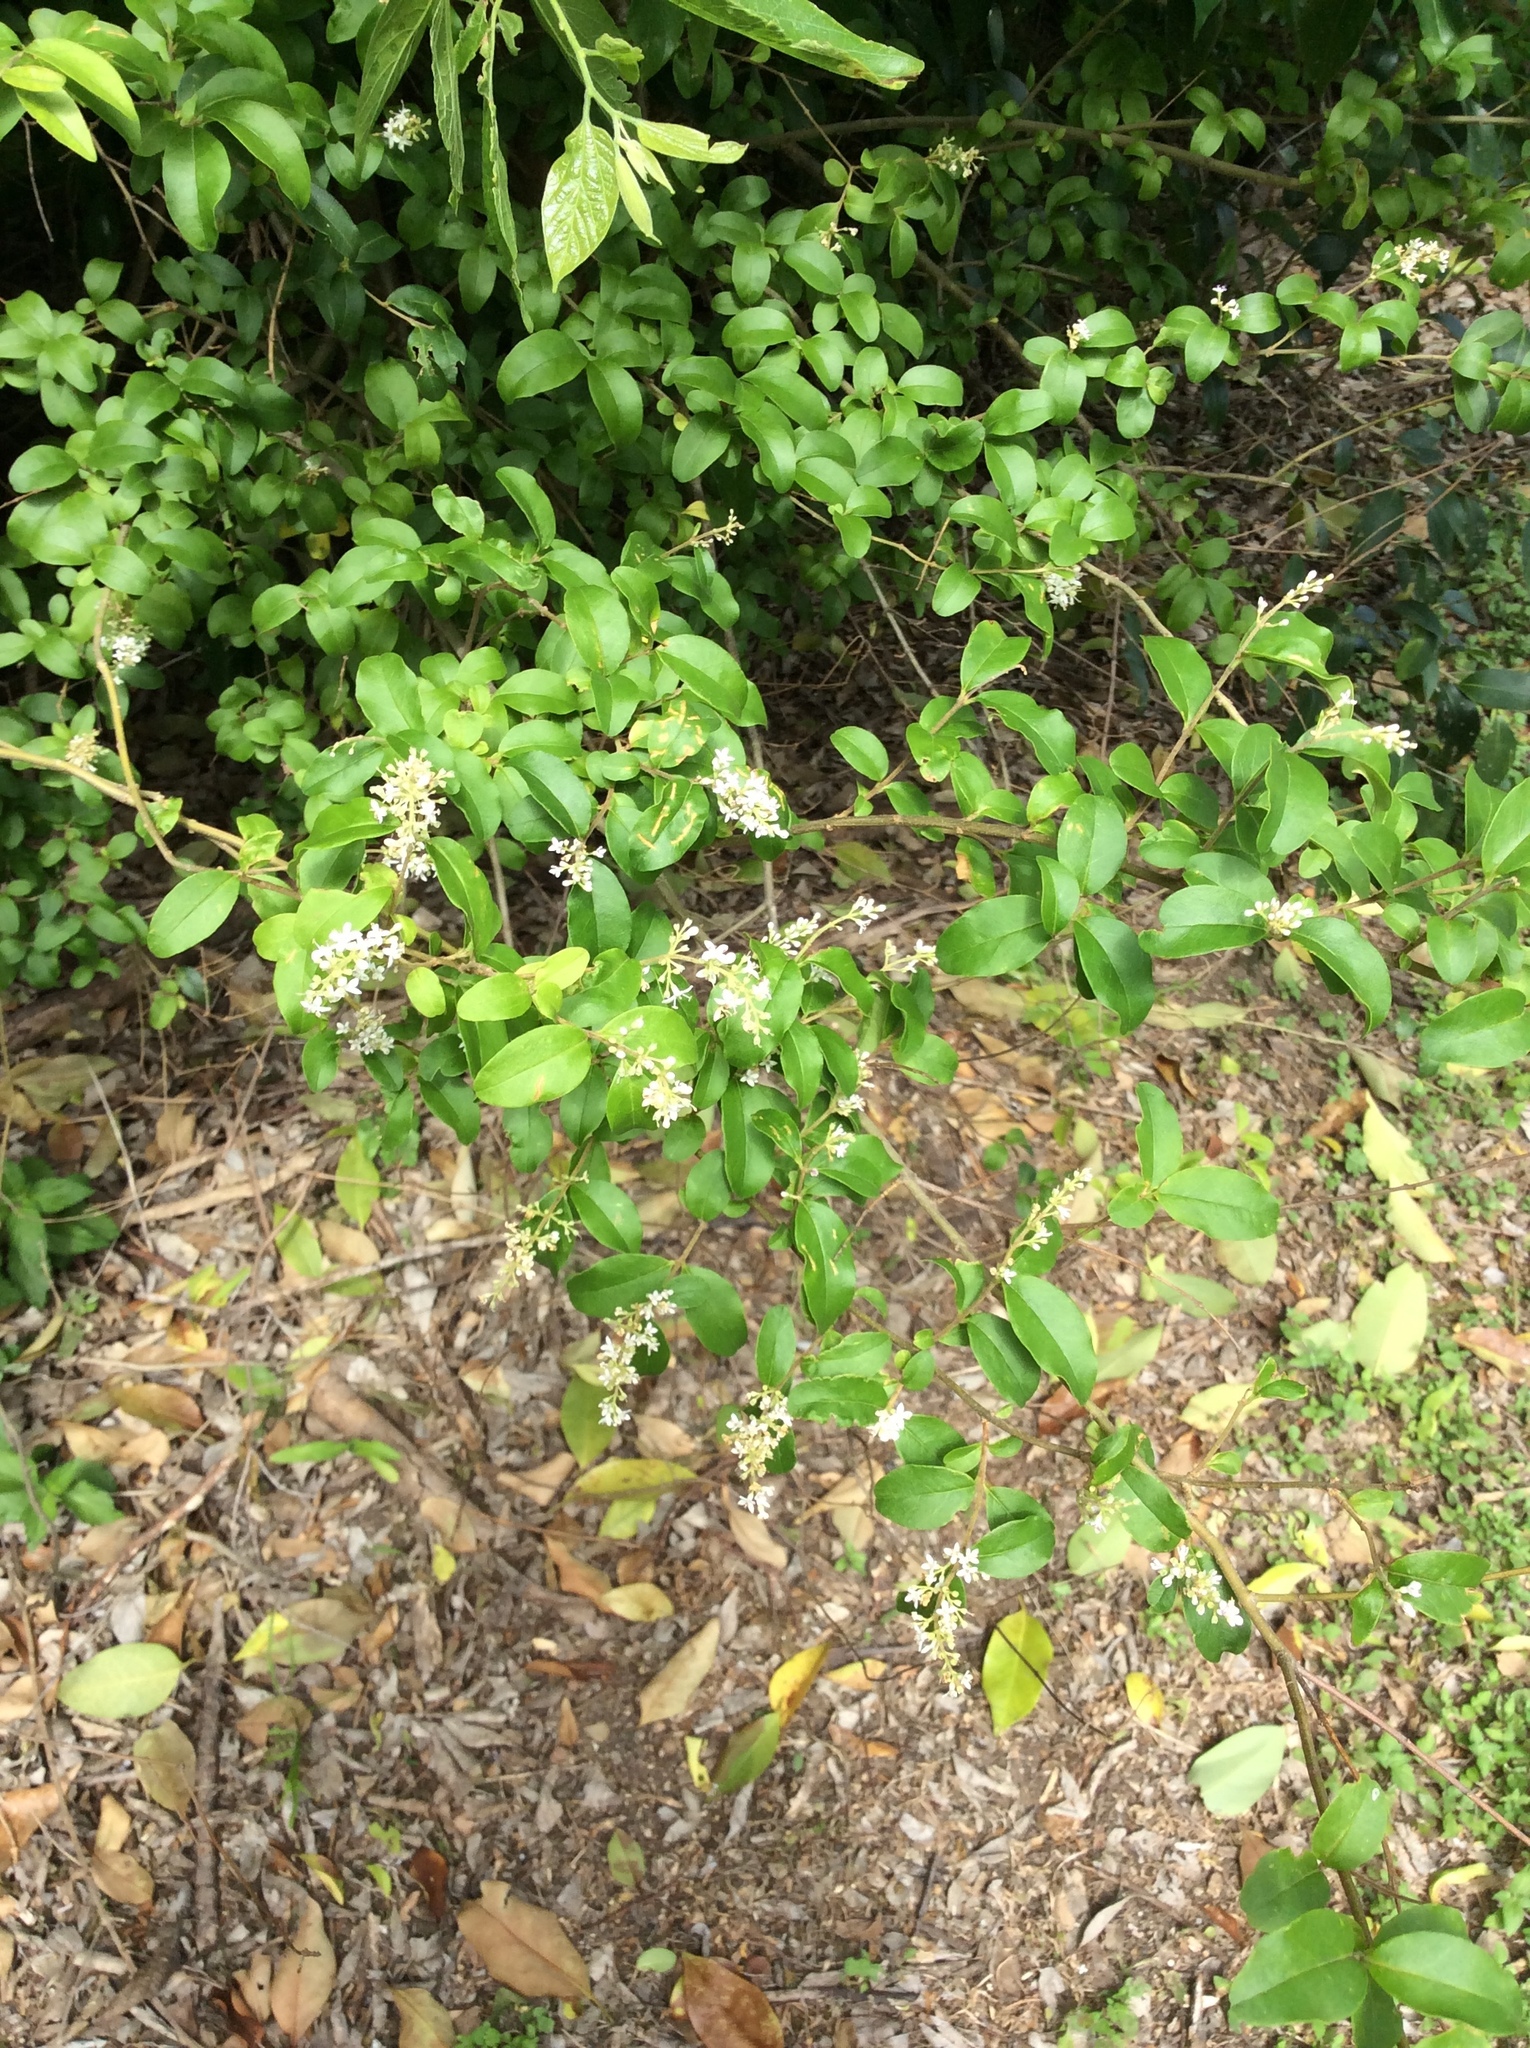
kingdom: Plantae
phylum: Tracheophyta
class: Magnoliopsida
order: Lamiales
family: Oleaceae
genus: Ligustrum
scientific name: Ligustrum sinense
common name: Chinese privet
